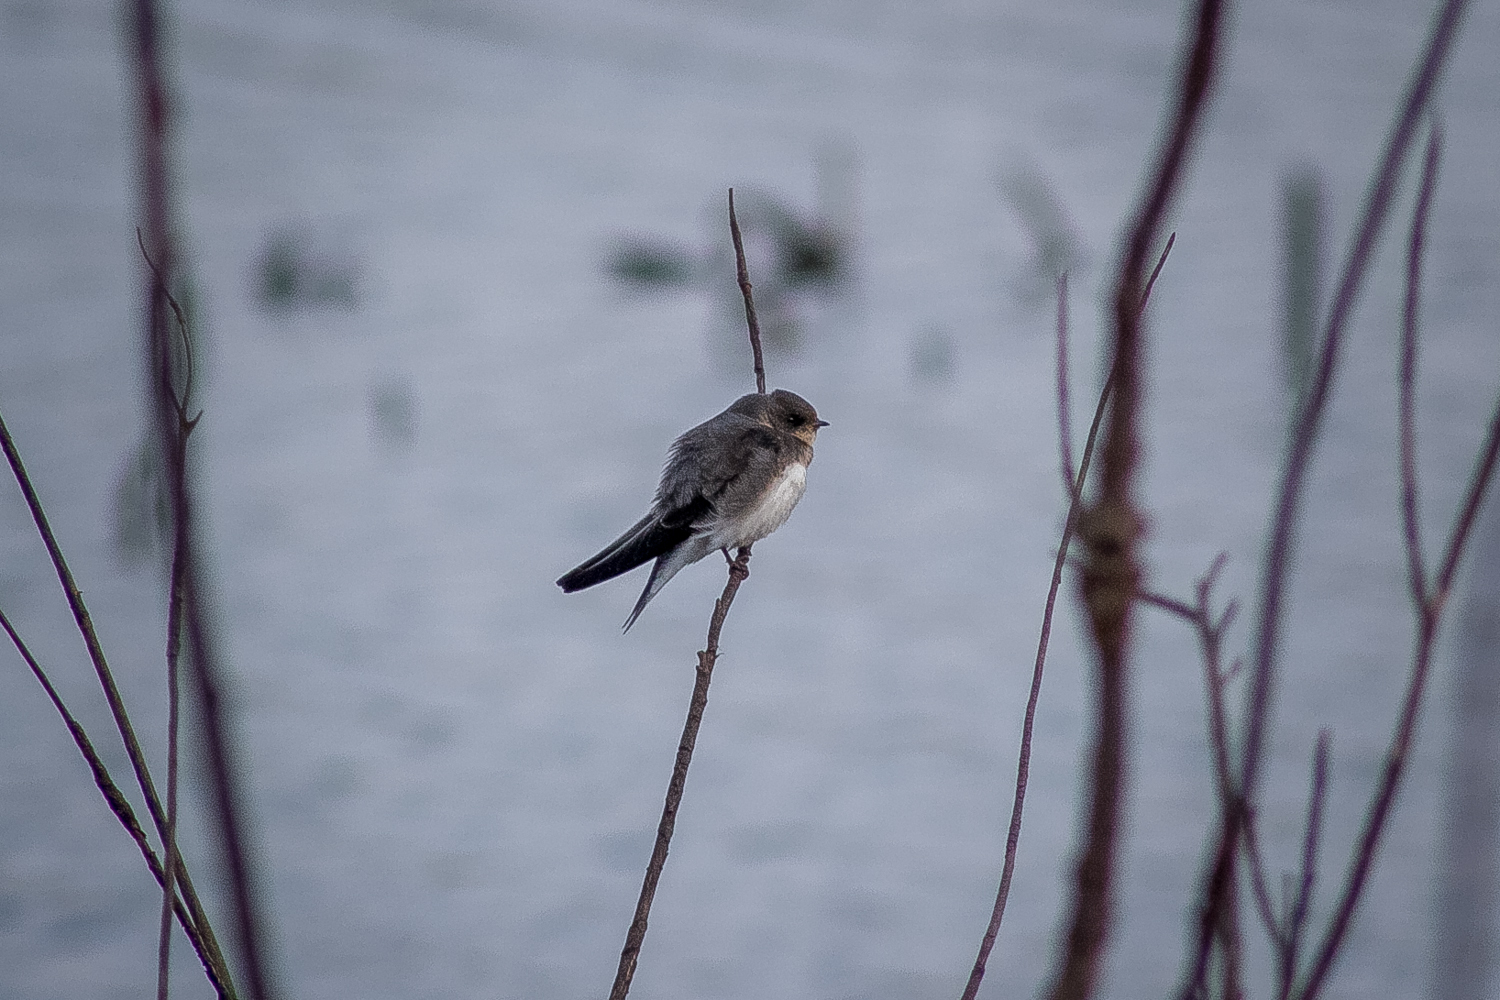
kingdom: Animalia
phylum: Chordata
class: Aves
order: Passeriformes
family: Hirundinidae
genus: Hirundo
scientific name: Hirundo rustica
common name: Barn swallow
